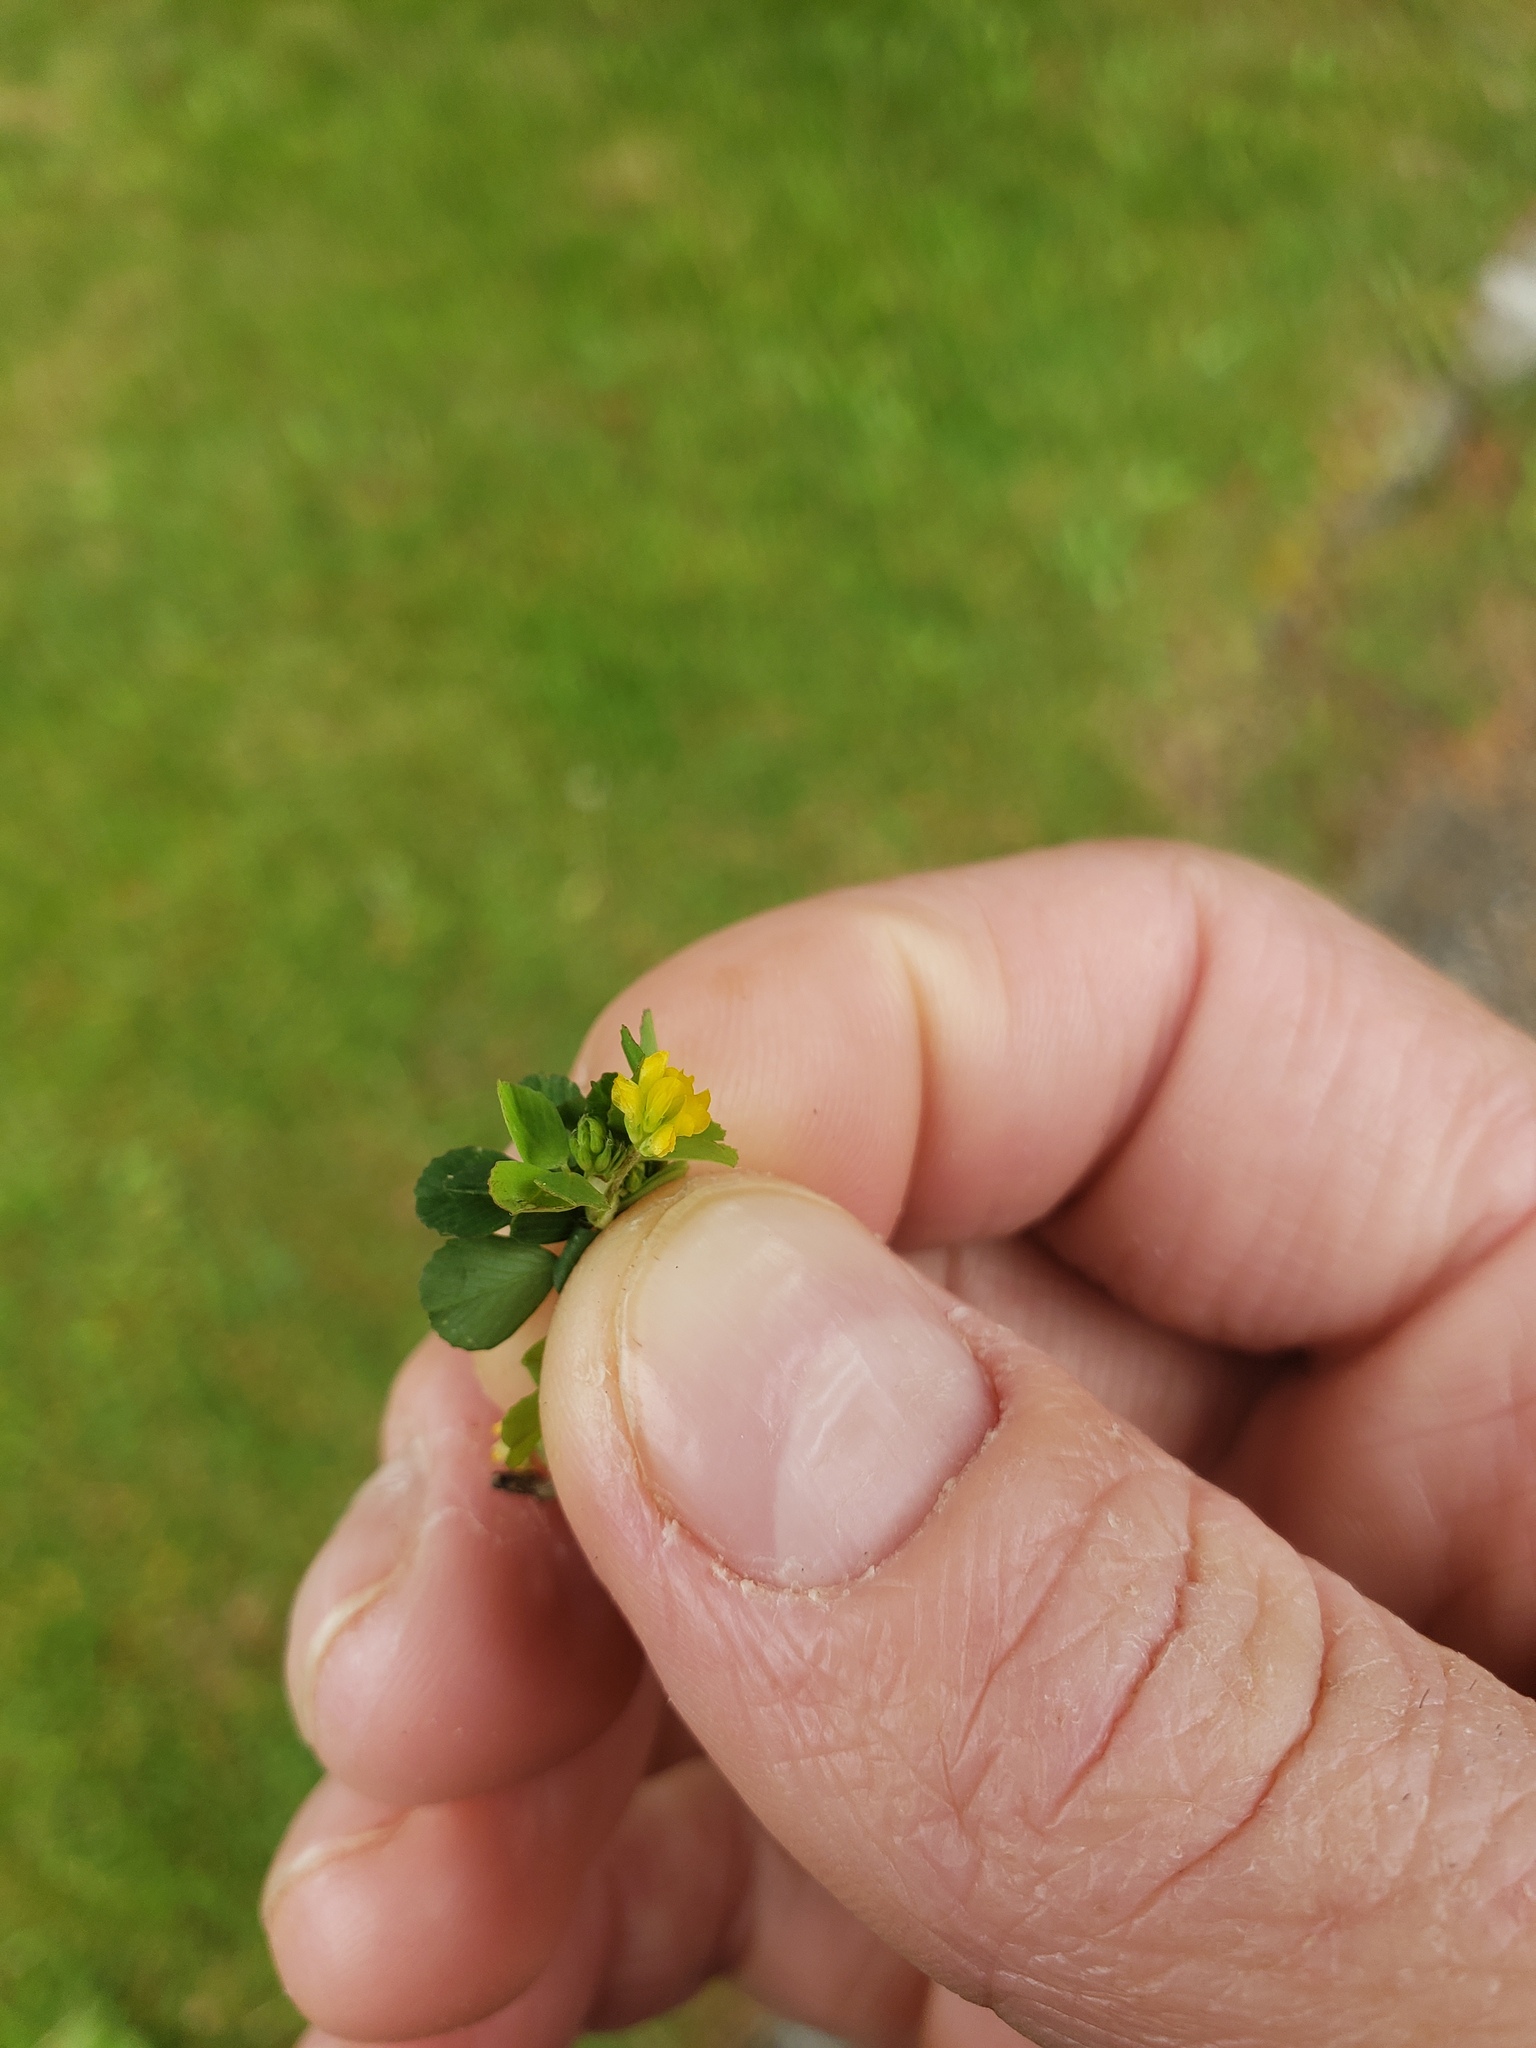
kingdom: Plantae
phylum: Tracheophyta
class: Magnoliopsida
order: Fabales
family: Fabaceae
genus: Trifolium
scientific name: Trifolium dubium
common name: Suckling clover
